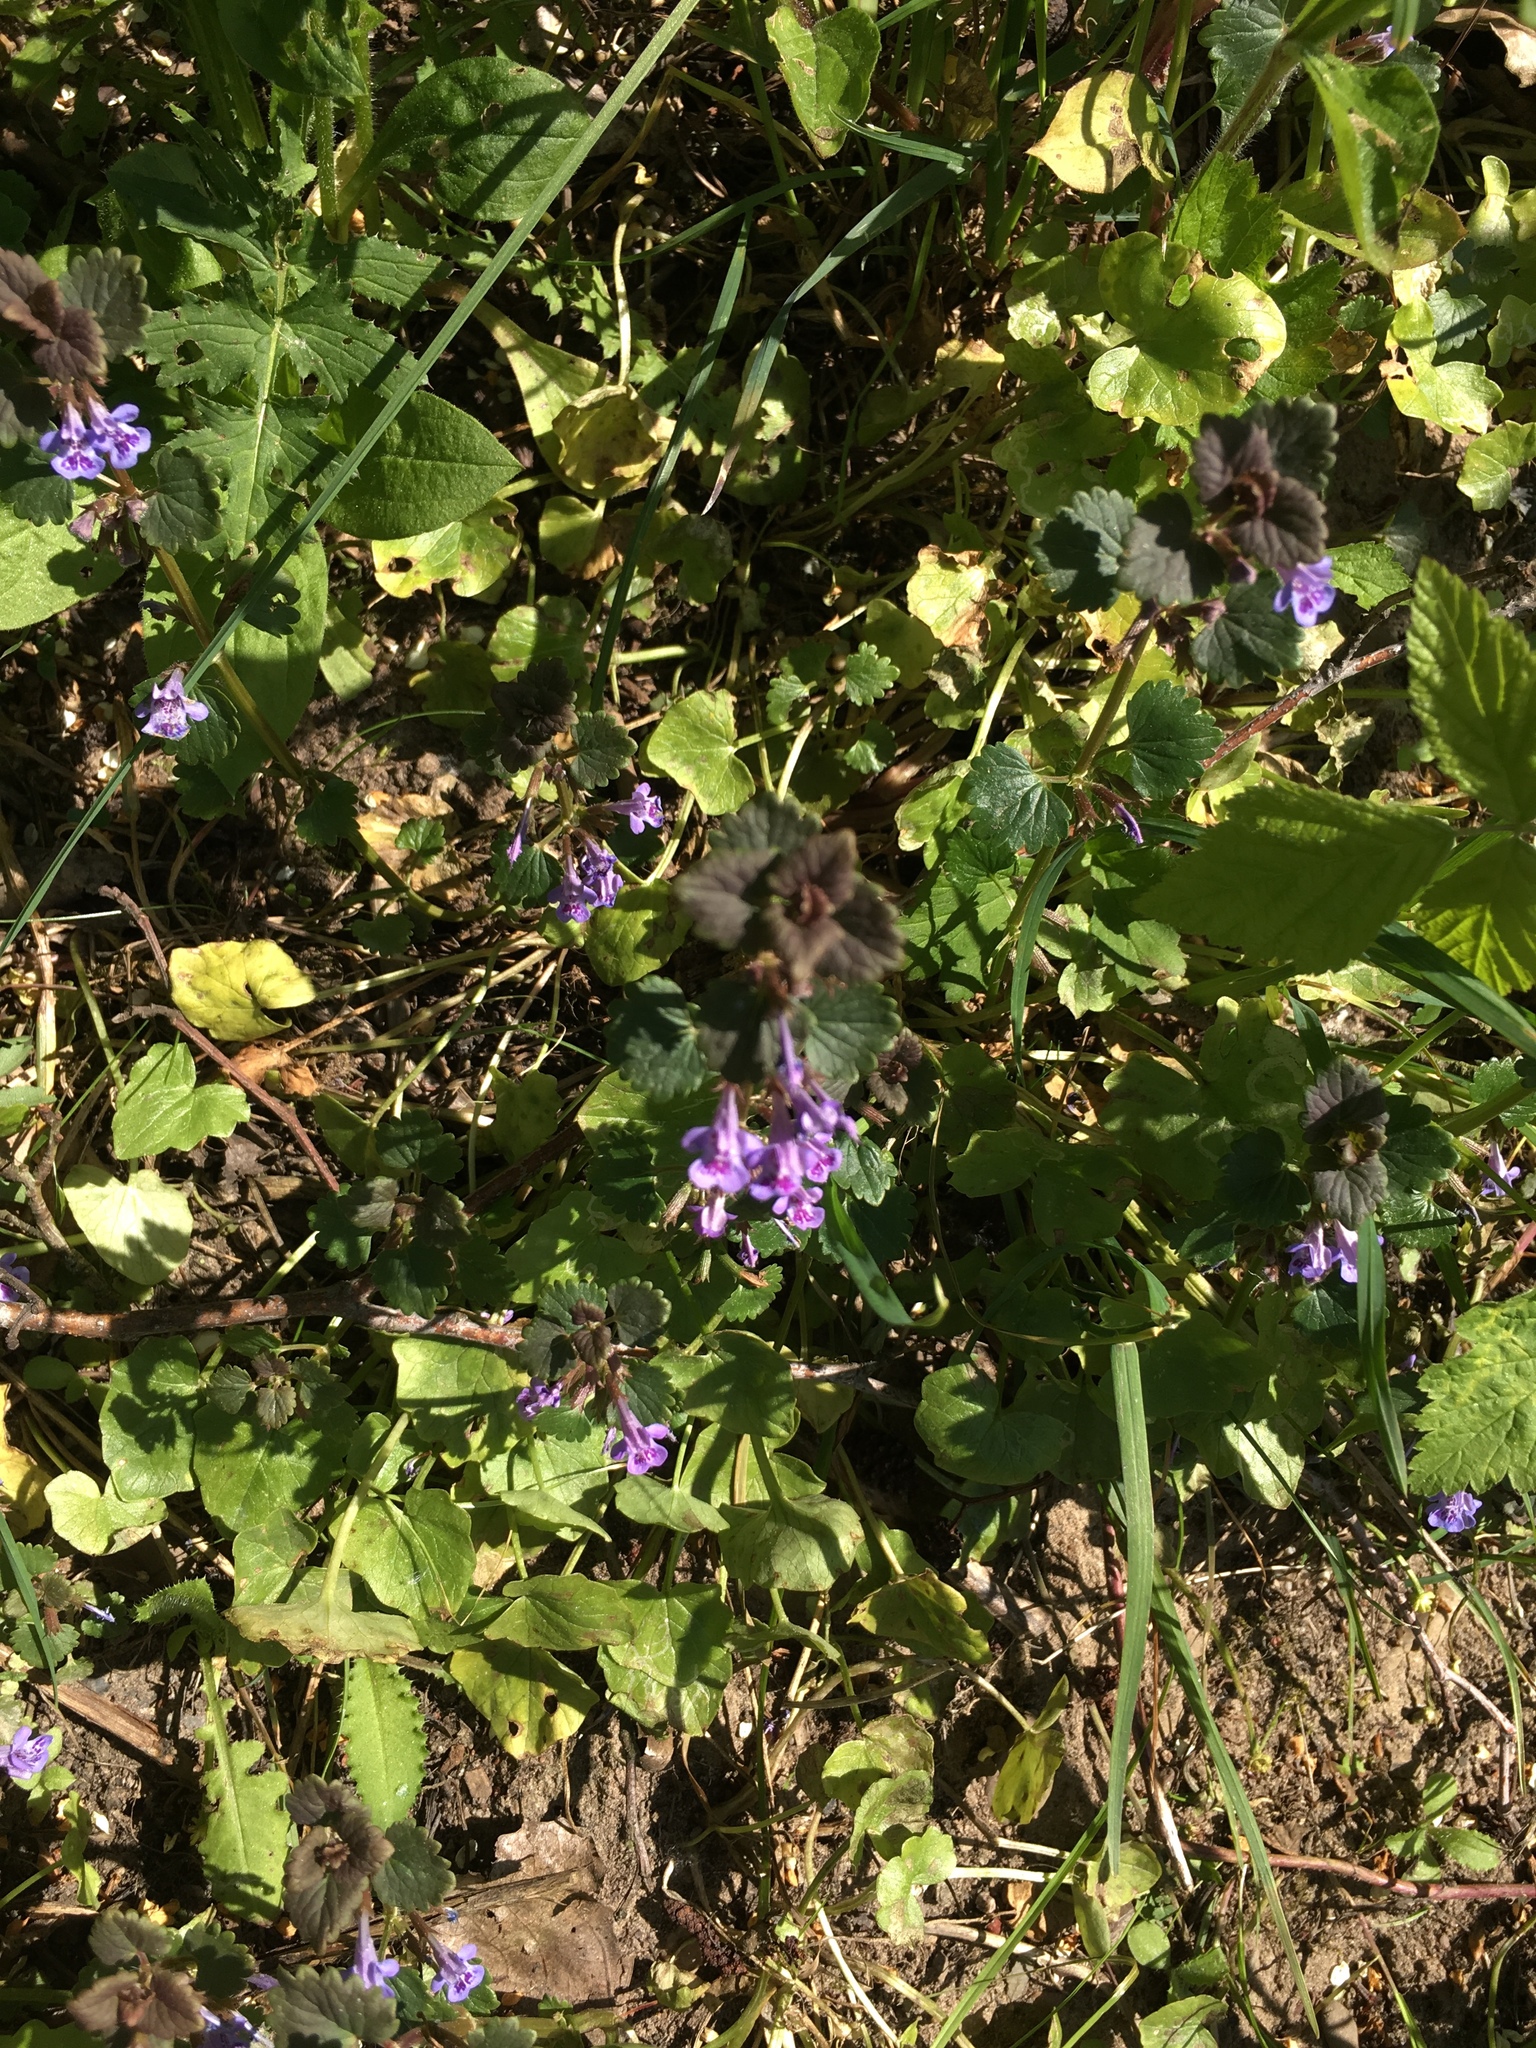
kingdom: Plantae
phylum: Tracheophyta
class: Magnoliopsida
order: Lamiales
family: Lamiaceae
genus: Glechoma
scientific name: Glechoma hederacea
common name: Ground ivy
